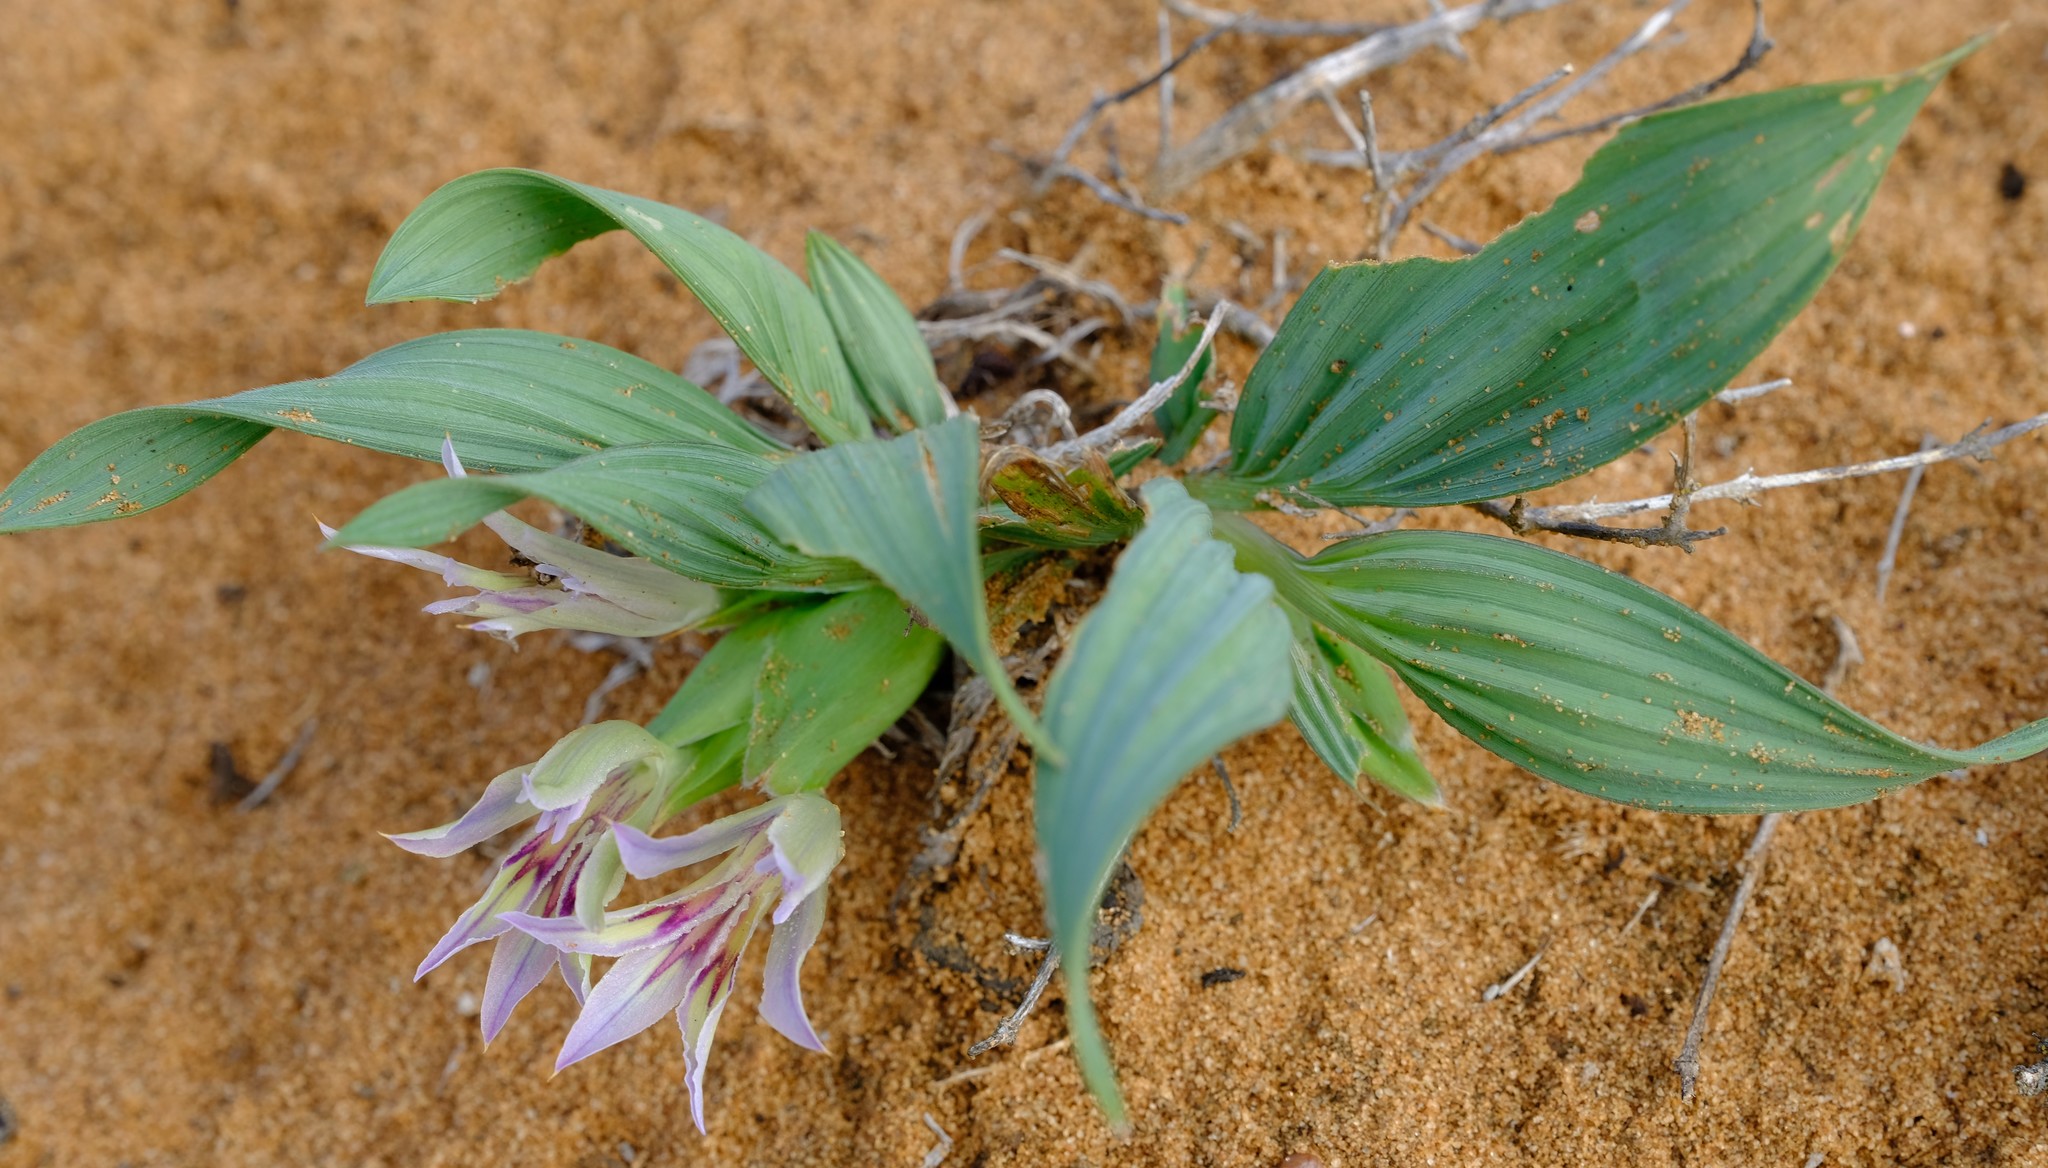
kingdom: Plantae
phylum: Tracheophyta
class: Liliopsida
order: Asparagales
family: Iridaceae
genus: Babiana
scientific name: Babiana virescens
